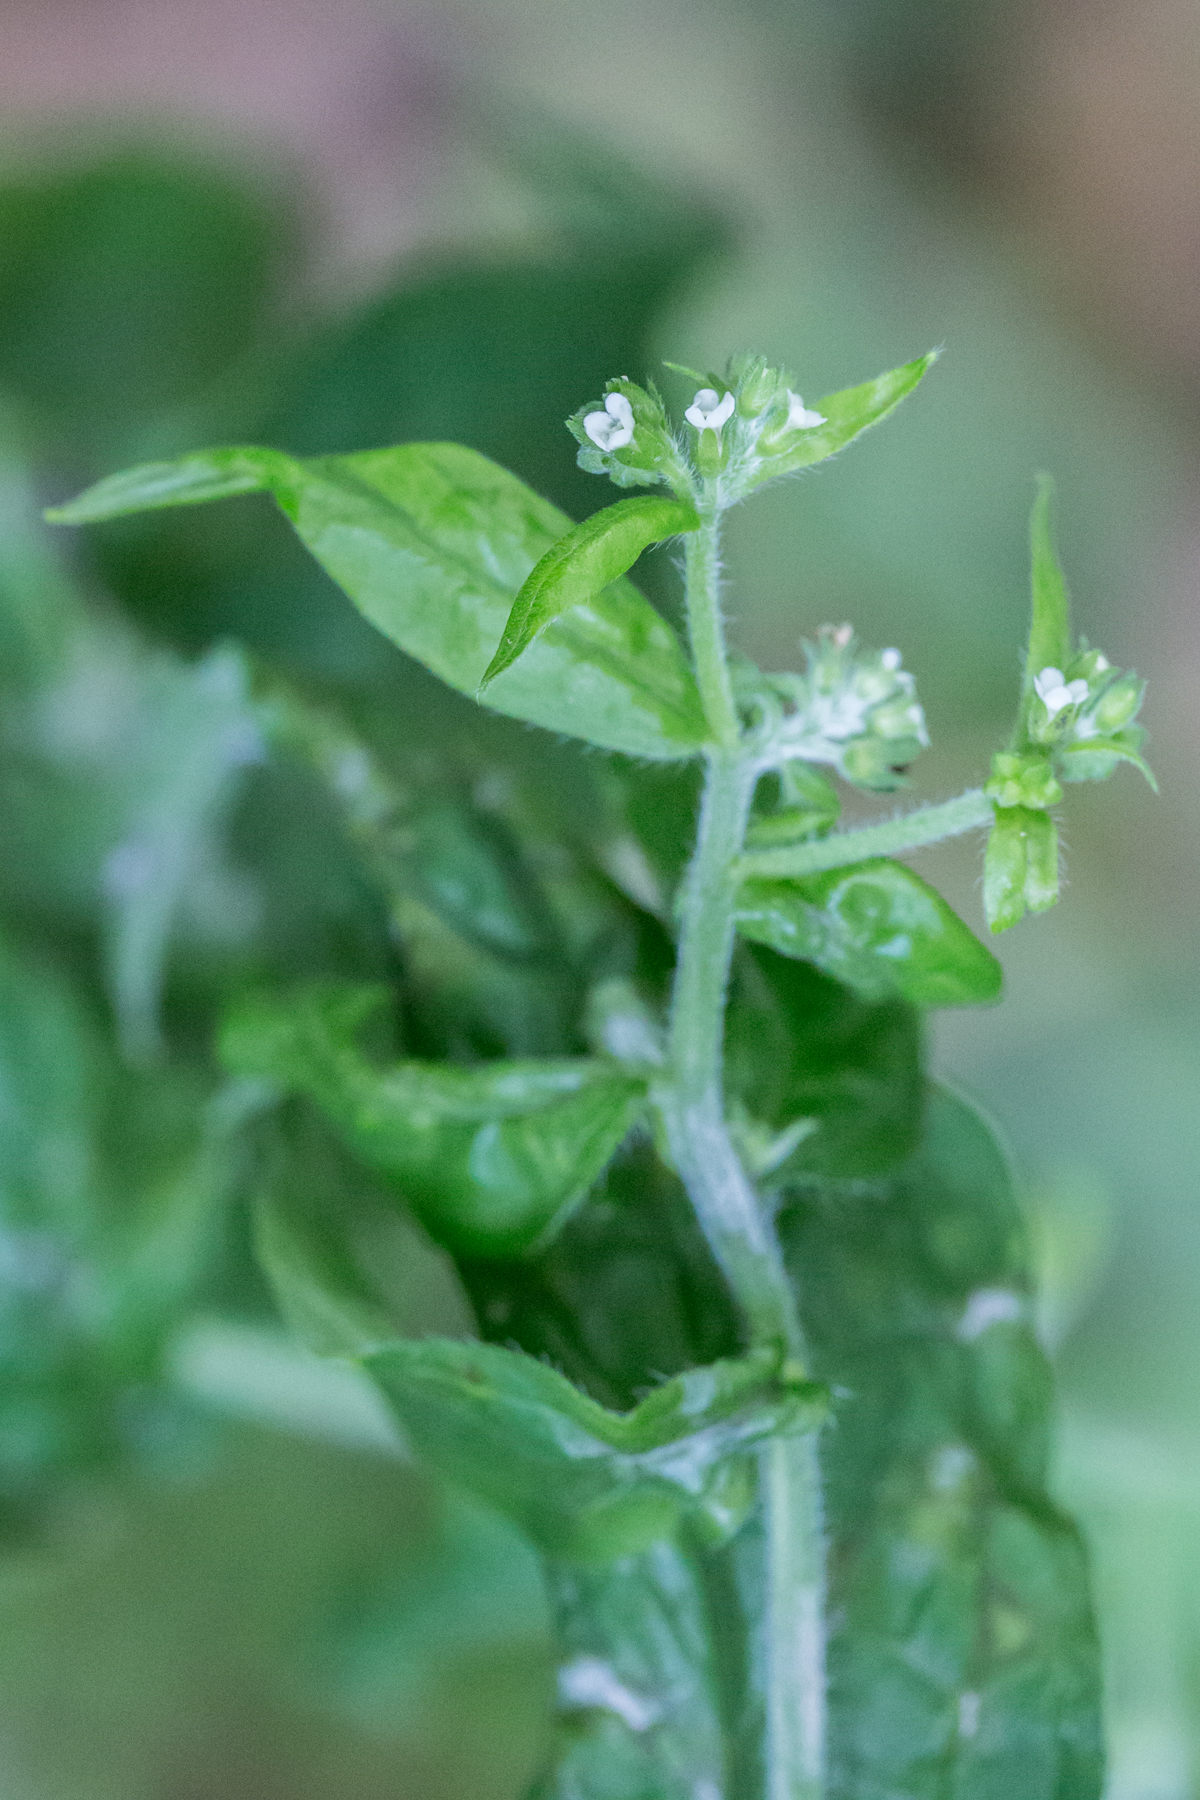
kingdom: Plantae
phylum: Tracheophyta
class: Magnoliopsida
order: Boraginales
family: Boraginaceae
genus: Hackelia
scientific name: Hackelia virginiana
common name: Beggar's-lice
